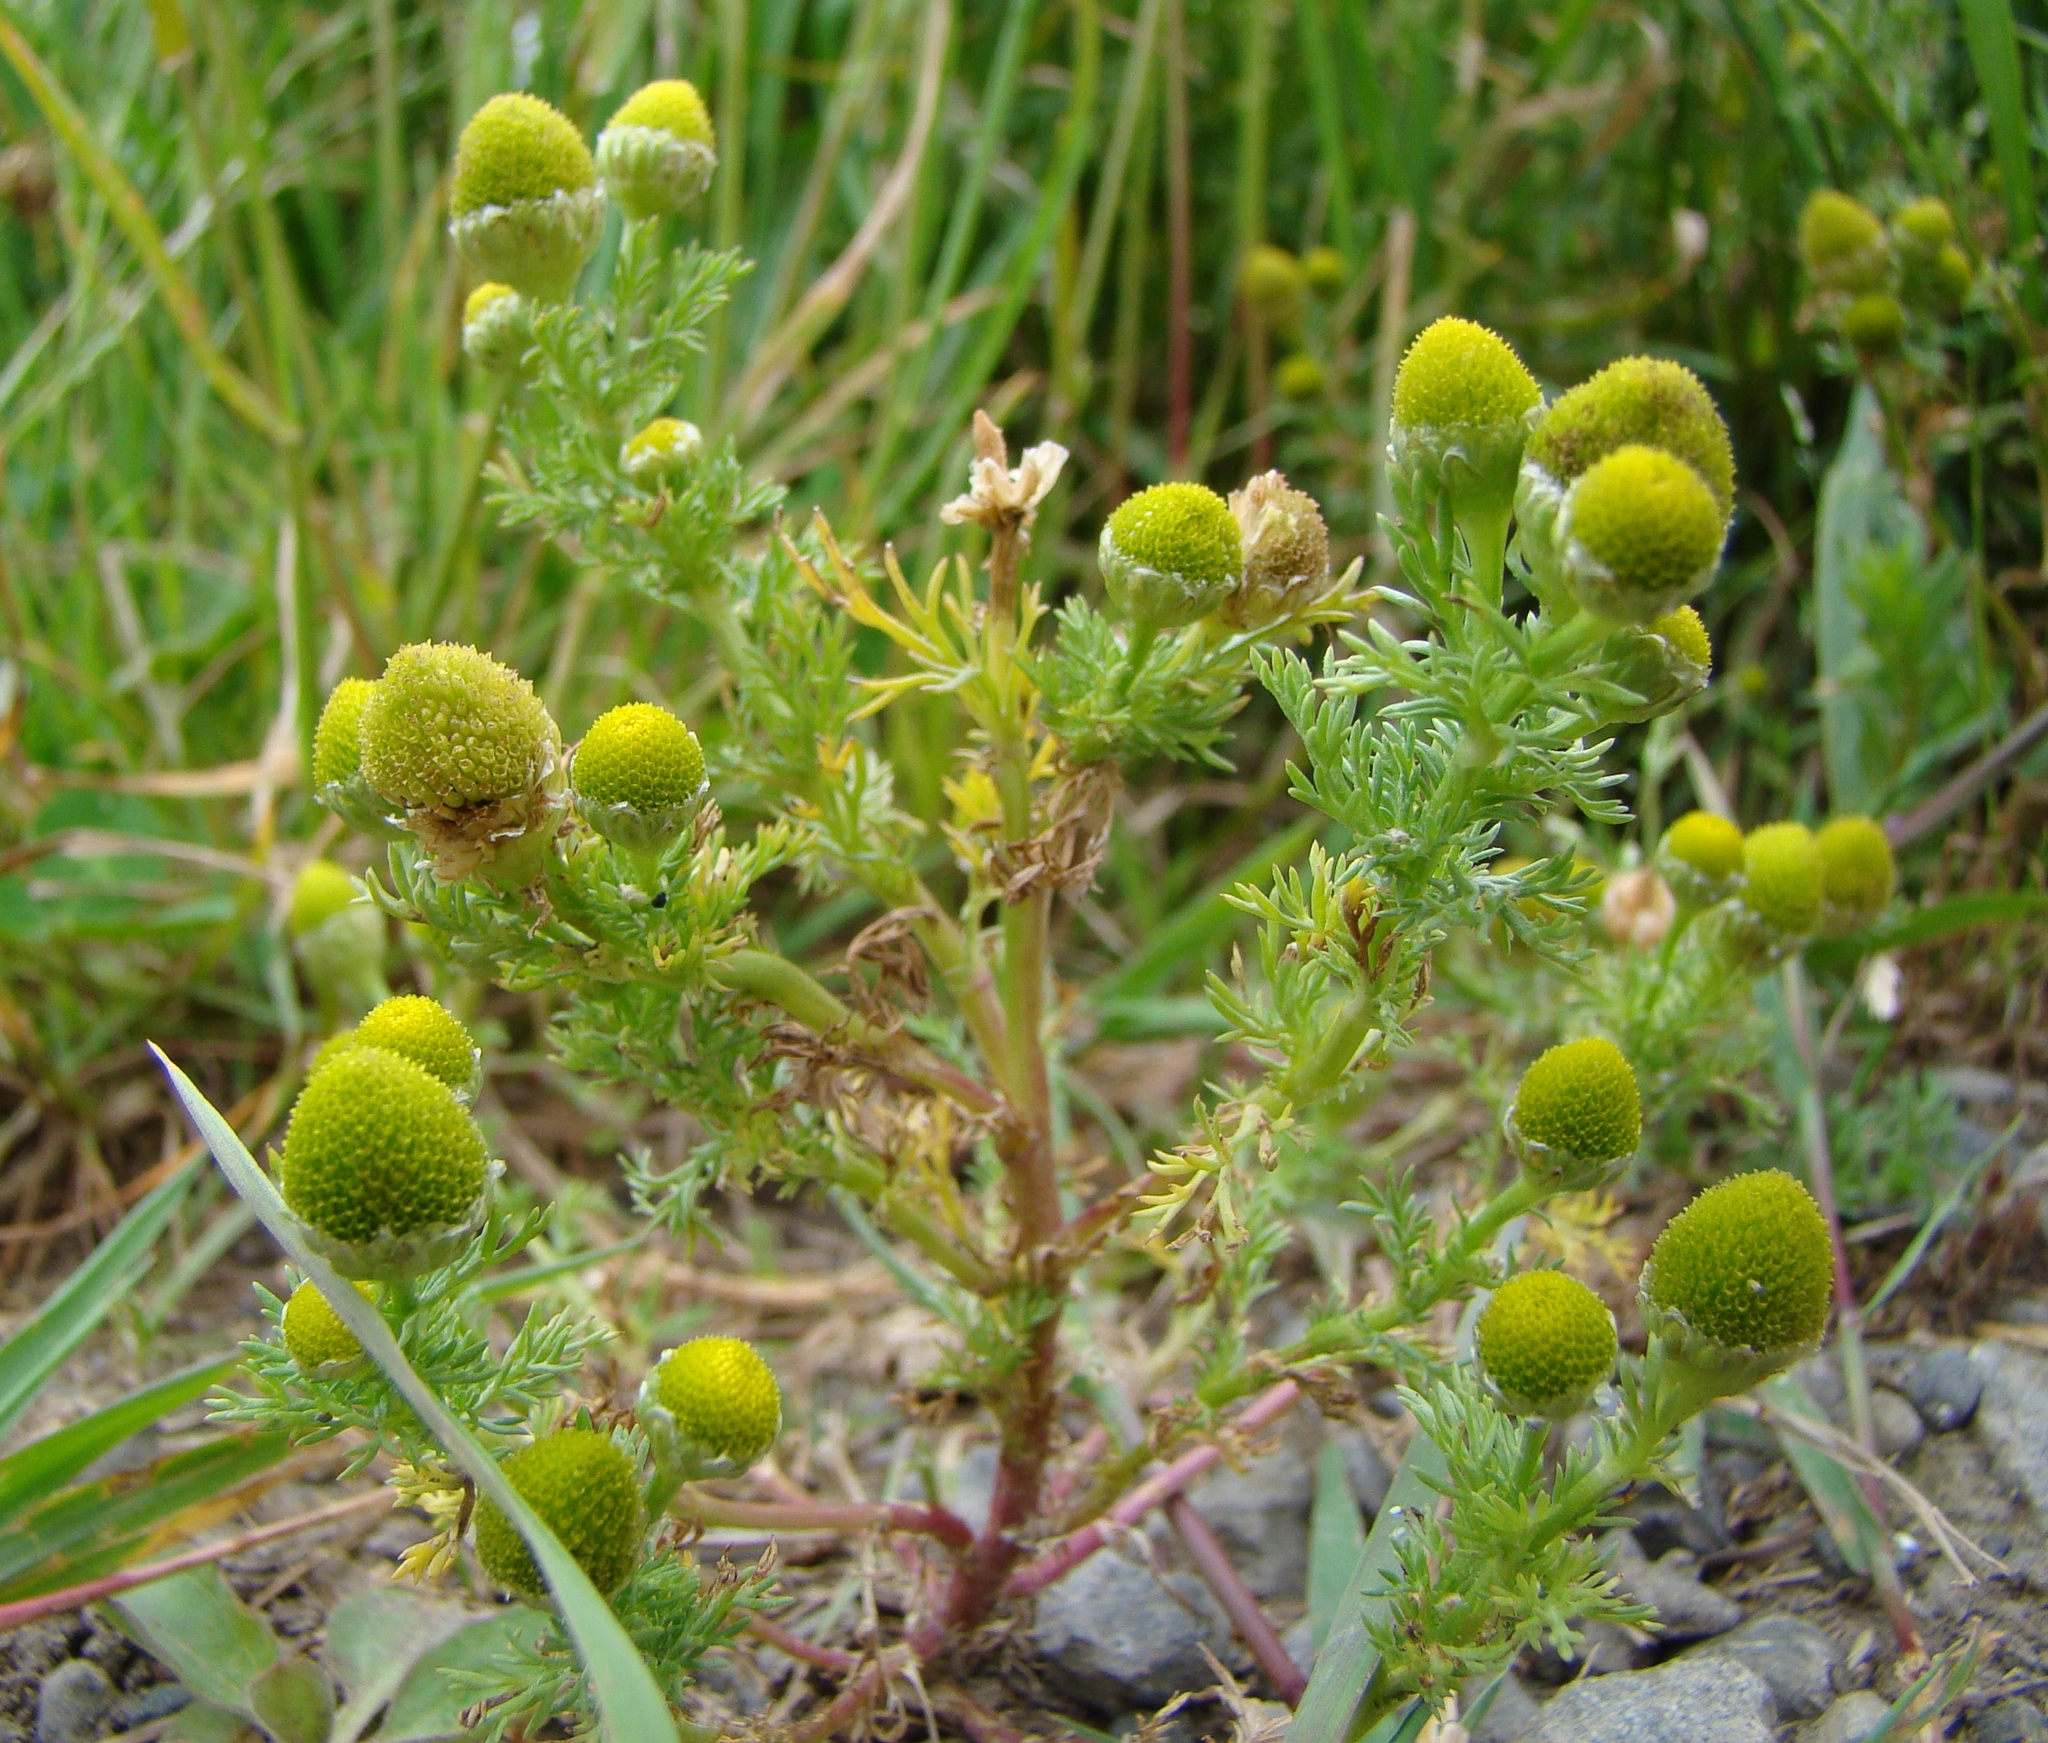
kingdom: Plantae
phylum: Tracheophyta
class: Magnoliopsida
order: Asterales
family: Asteraceae
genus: Matricaria
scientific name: Matricaria discoidea
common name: Disc mayweed
